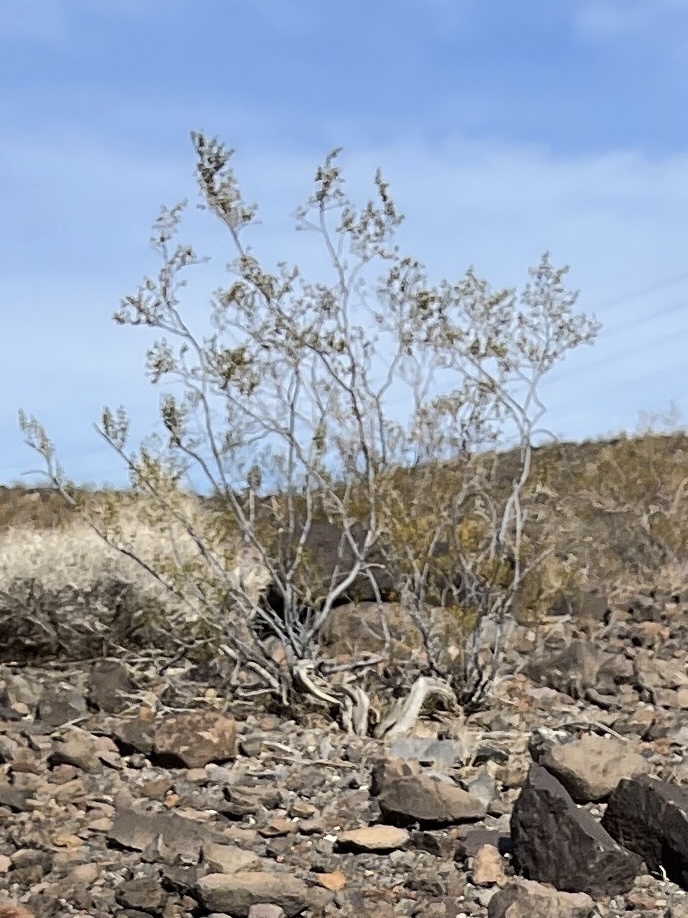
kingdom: Plantae
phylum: Tracheophyta
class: Magnoliopsida
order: Zygophyllales
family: Zygophyllaceae
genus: Larrea
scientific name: Larrea tridentata
